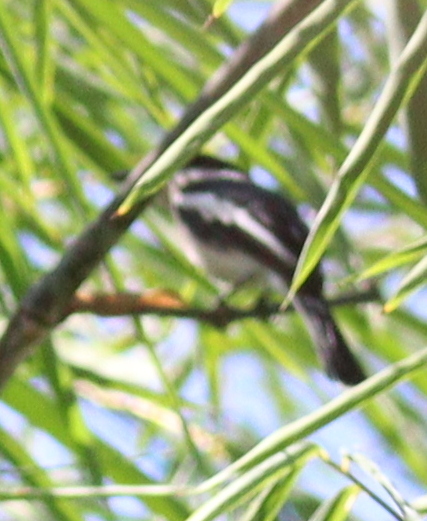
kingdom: Animalia
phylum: Chordata
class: Aves
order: Passeriformes
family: Tephrodornithidae
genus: Hemipus
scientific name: Hemipus picatus
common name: Bar-winged flycatcher-shrike
